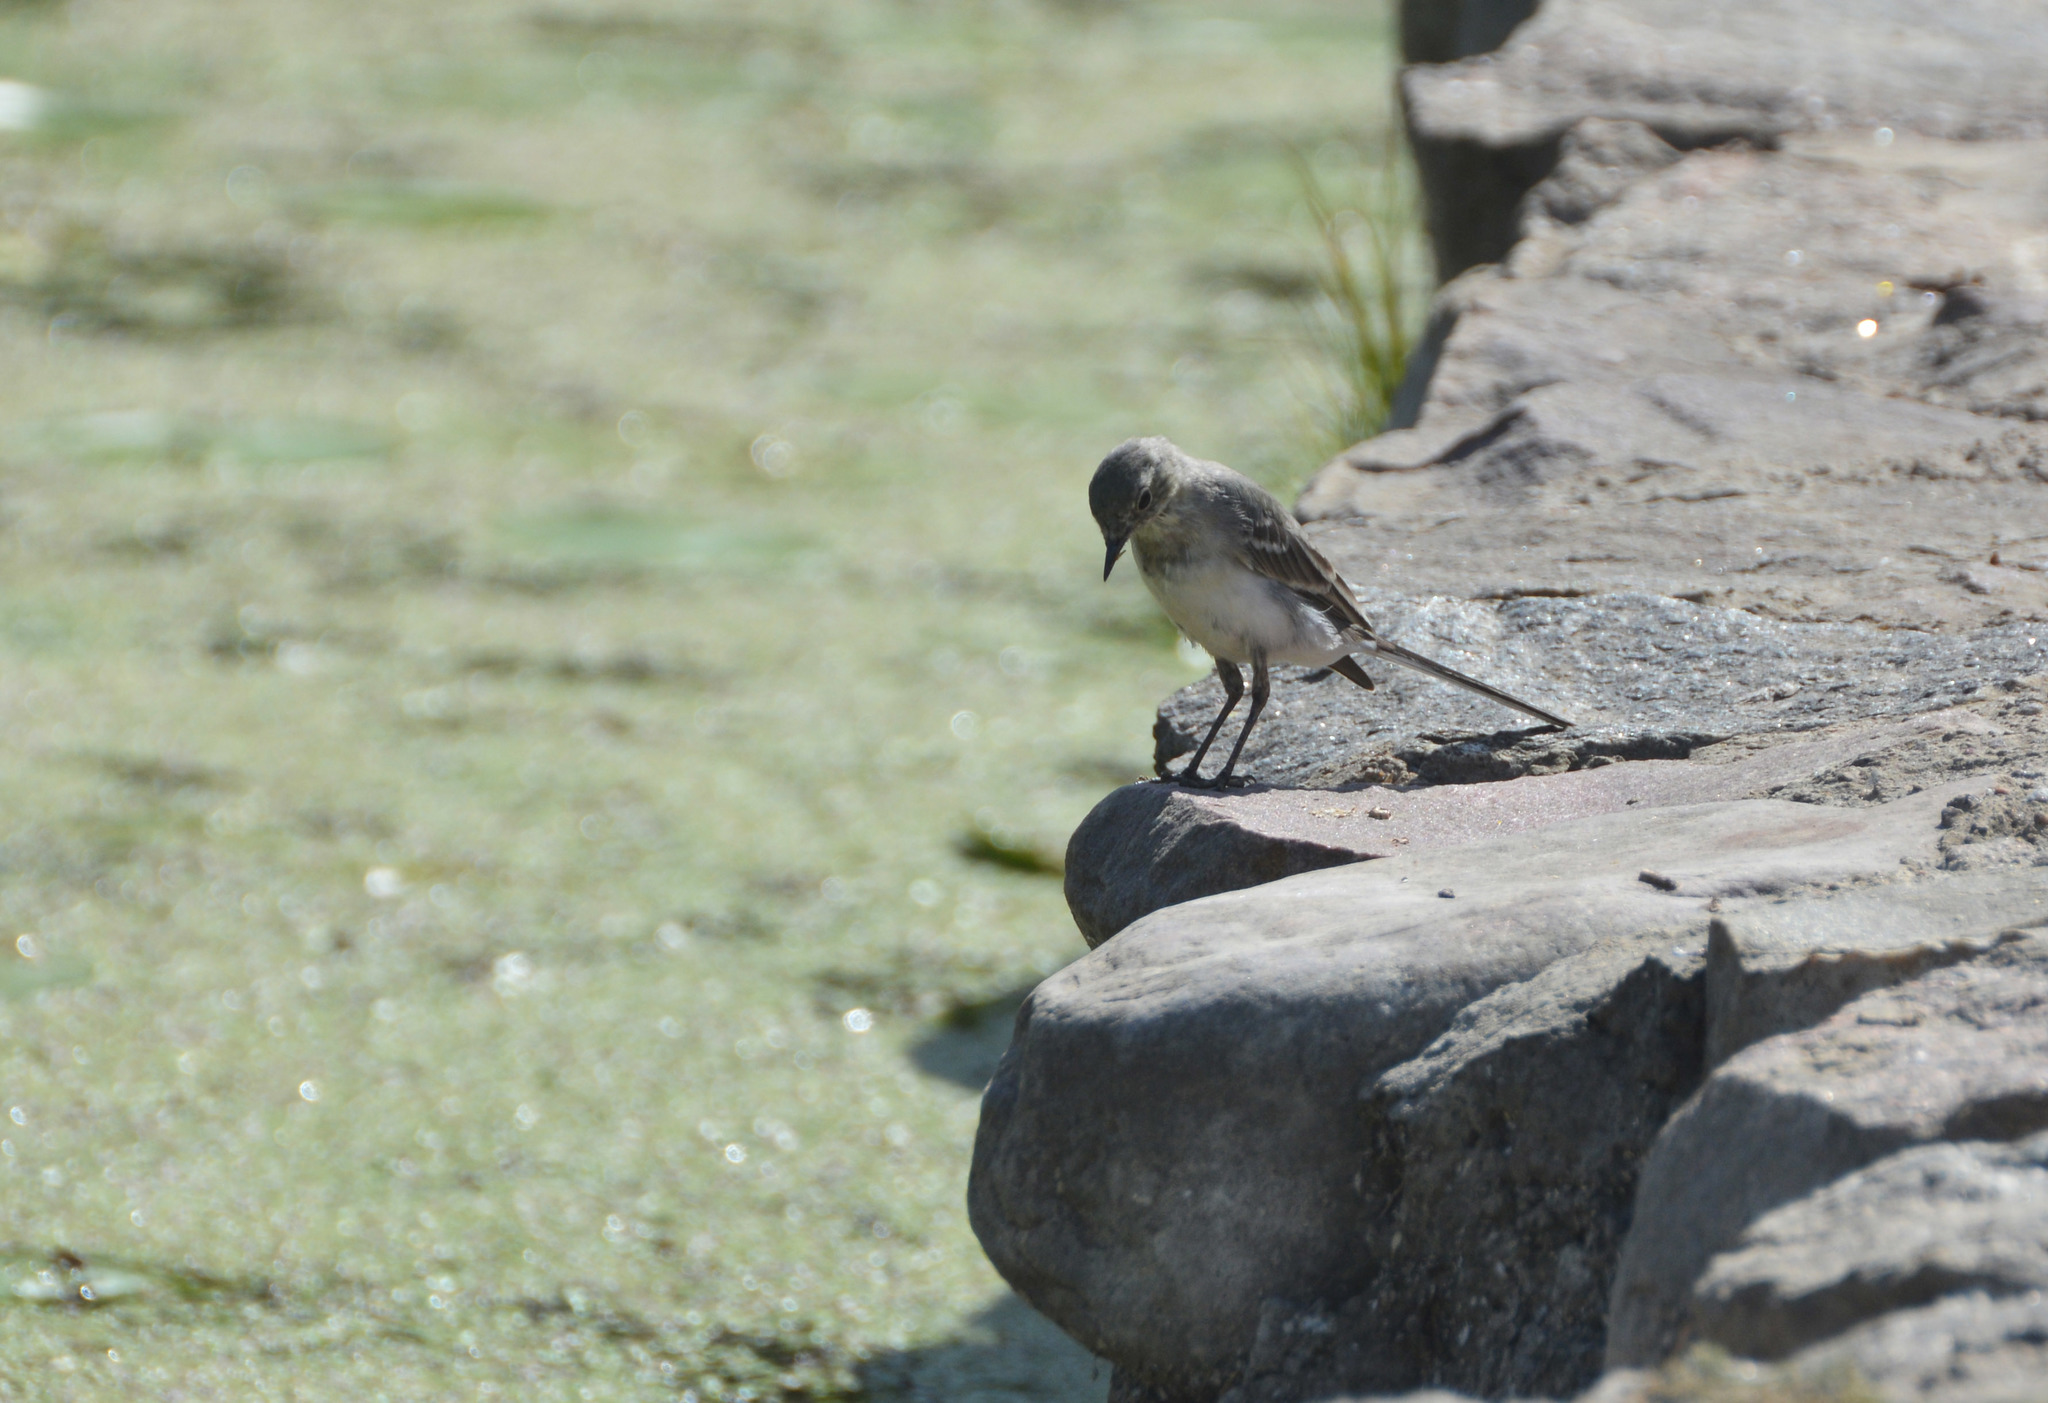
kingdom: Animalia
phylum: Chordata
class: Aves
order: Passeriformes
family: Motacillidae
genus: Motacilla
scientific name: Motacilla alba
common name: White wagtail
